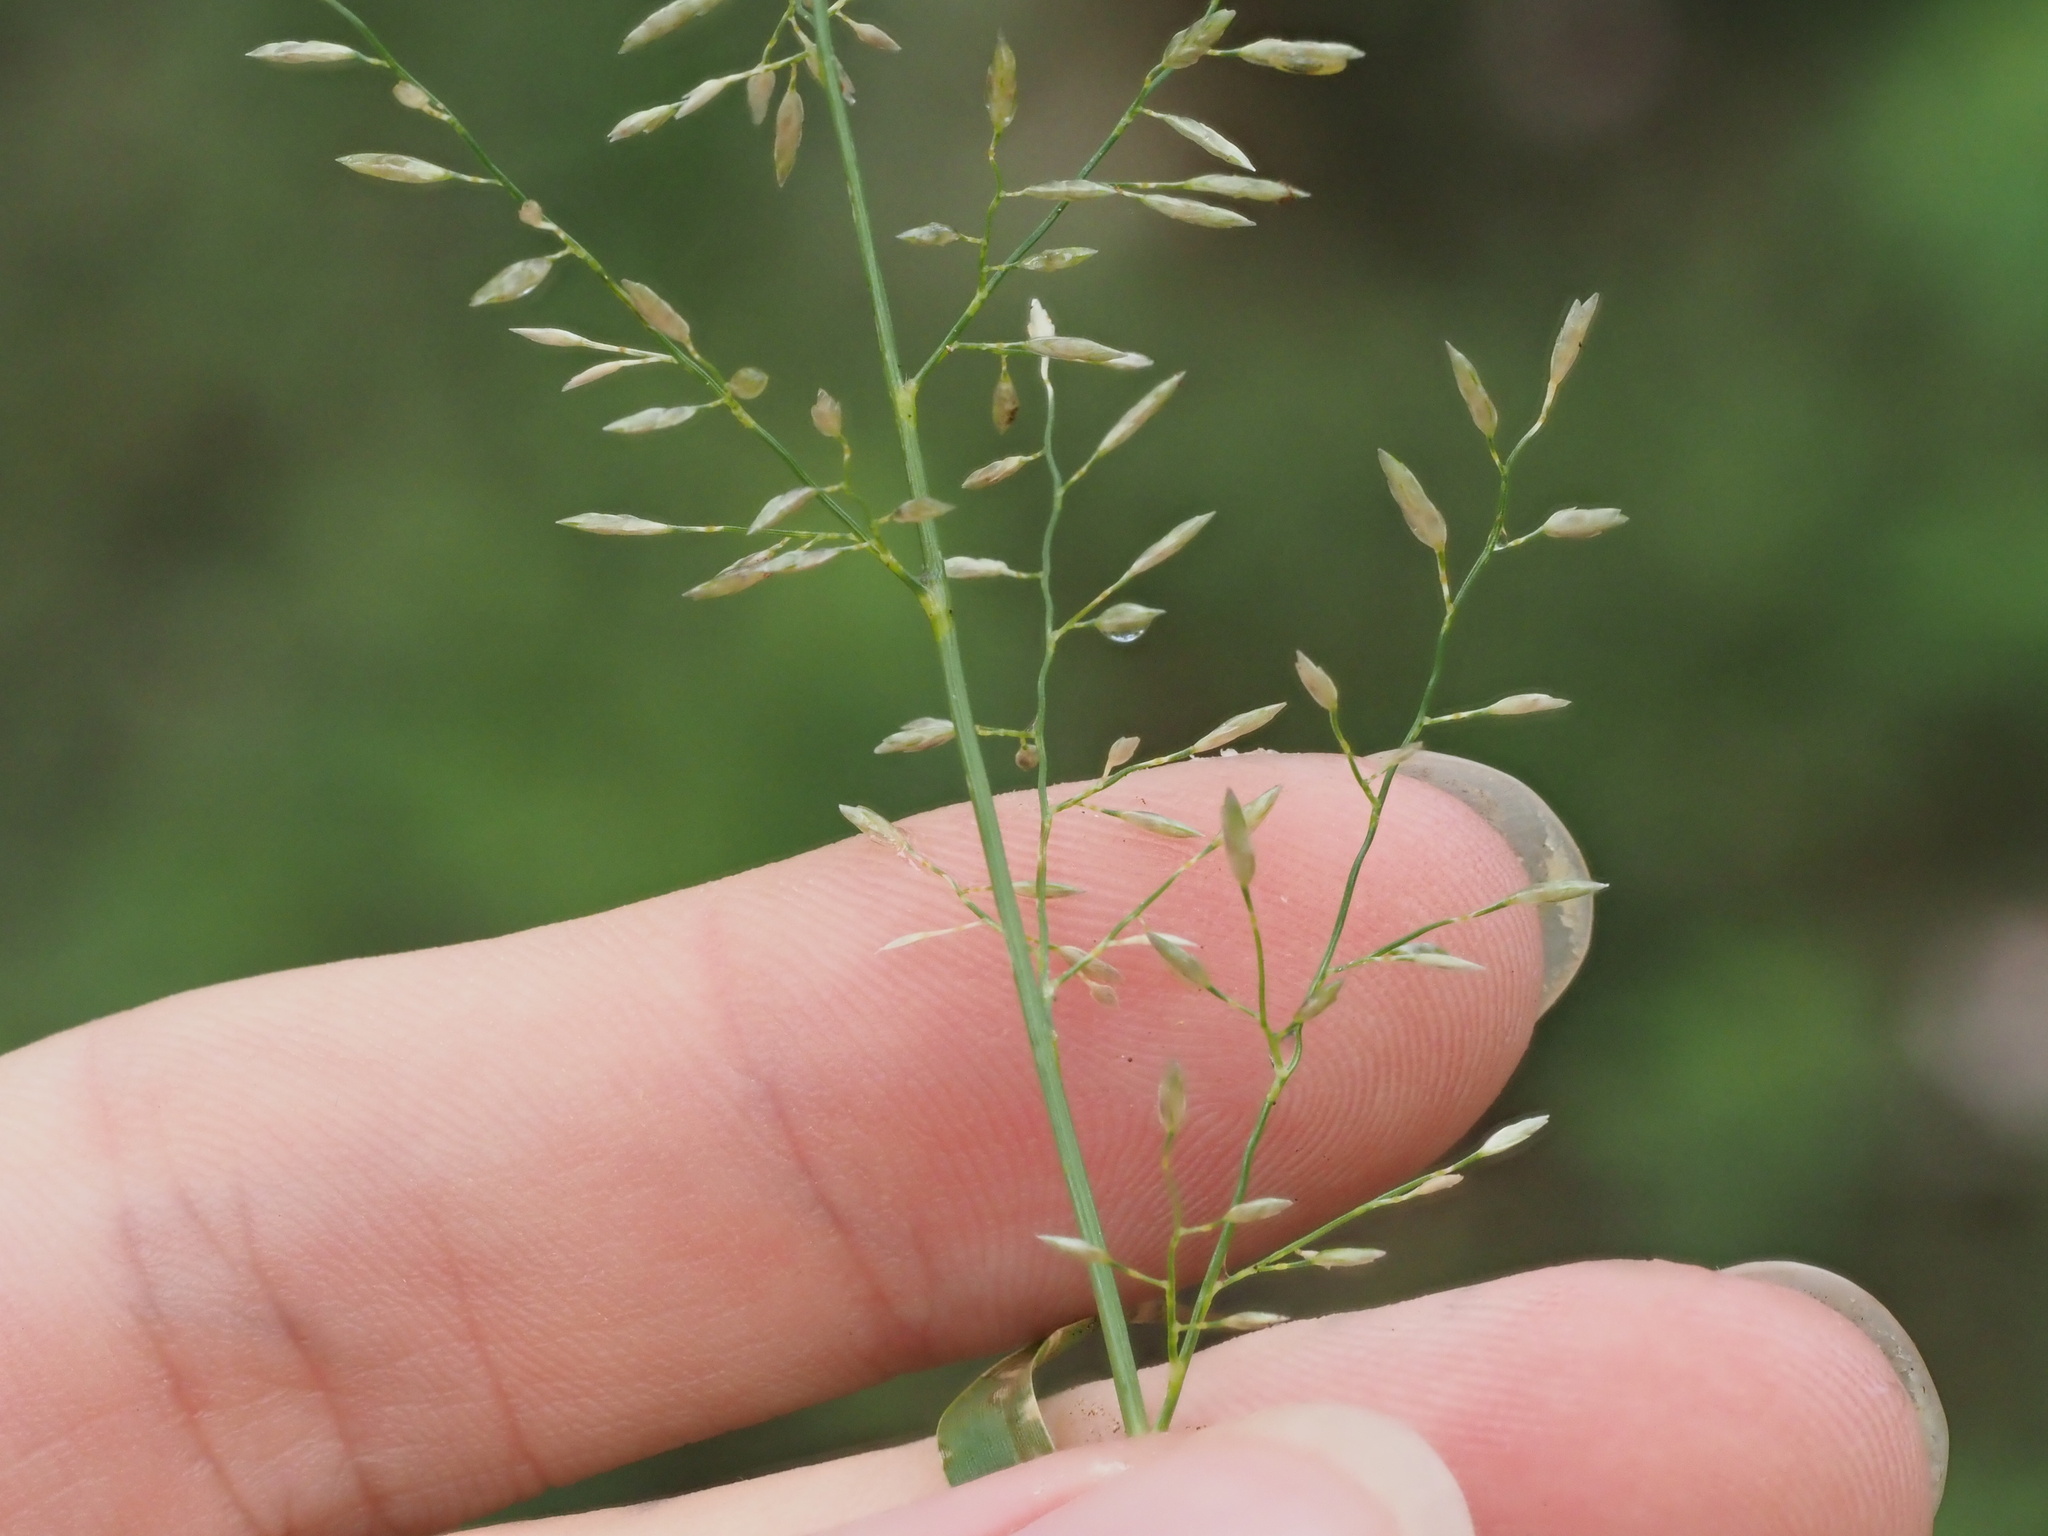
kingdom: Plantae
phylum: Tracheophyta
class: Liliopsida
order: Poales
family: Poaceae
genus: Eragrostis
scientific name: Eragrostis barrelieri
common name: Mediterranean lovegrass
